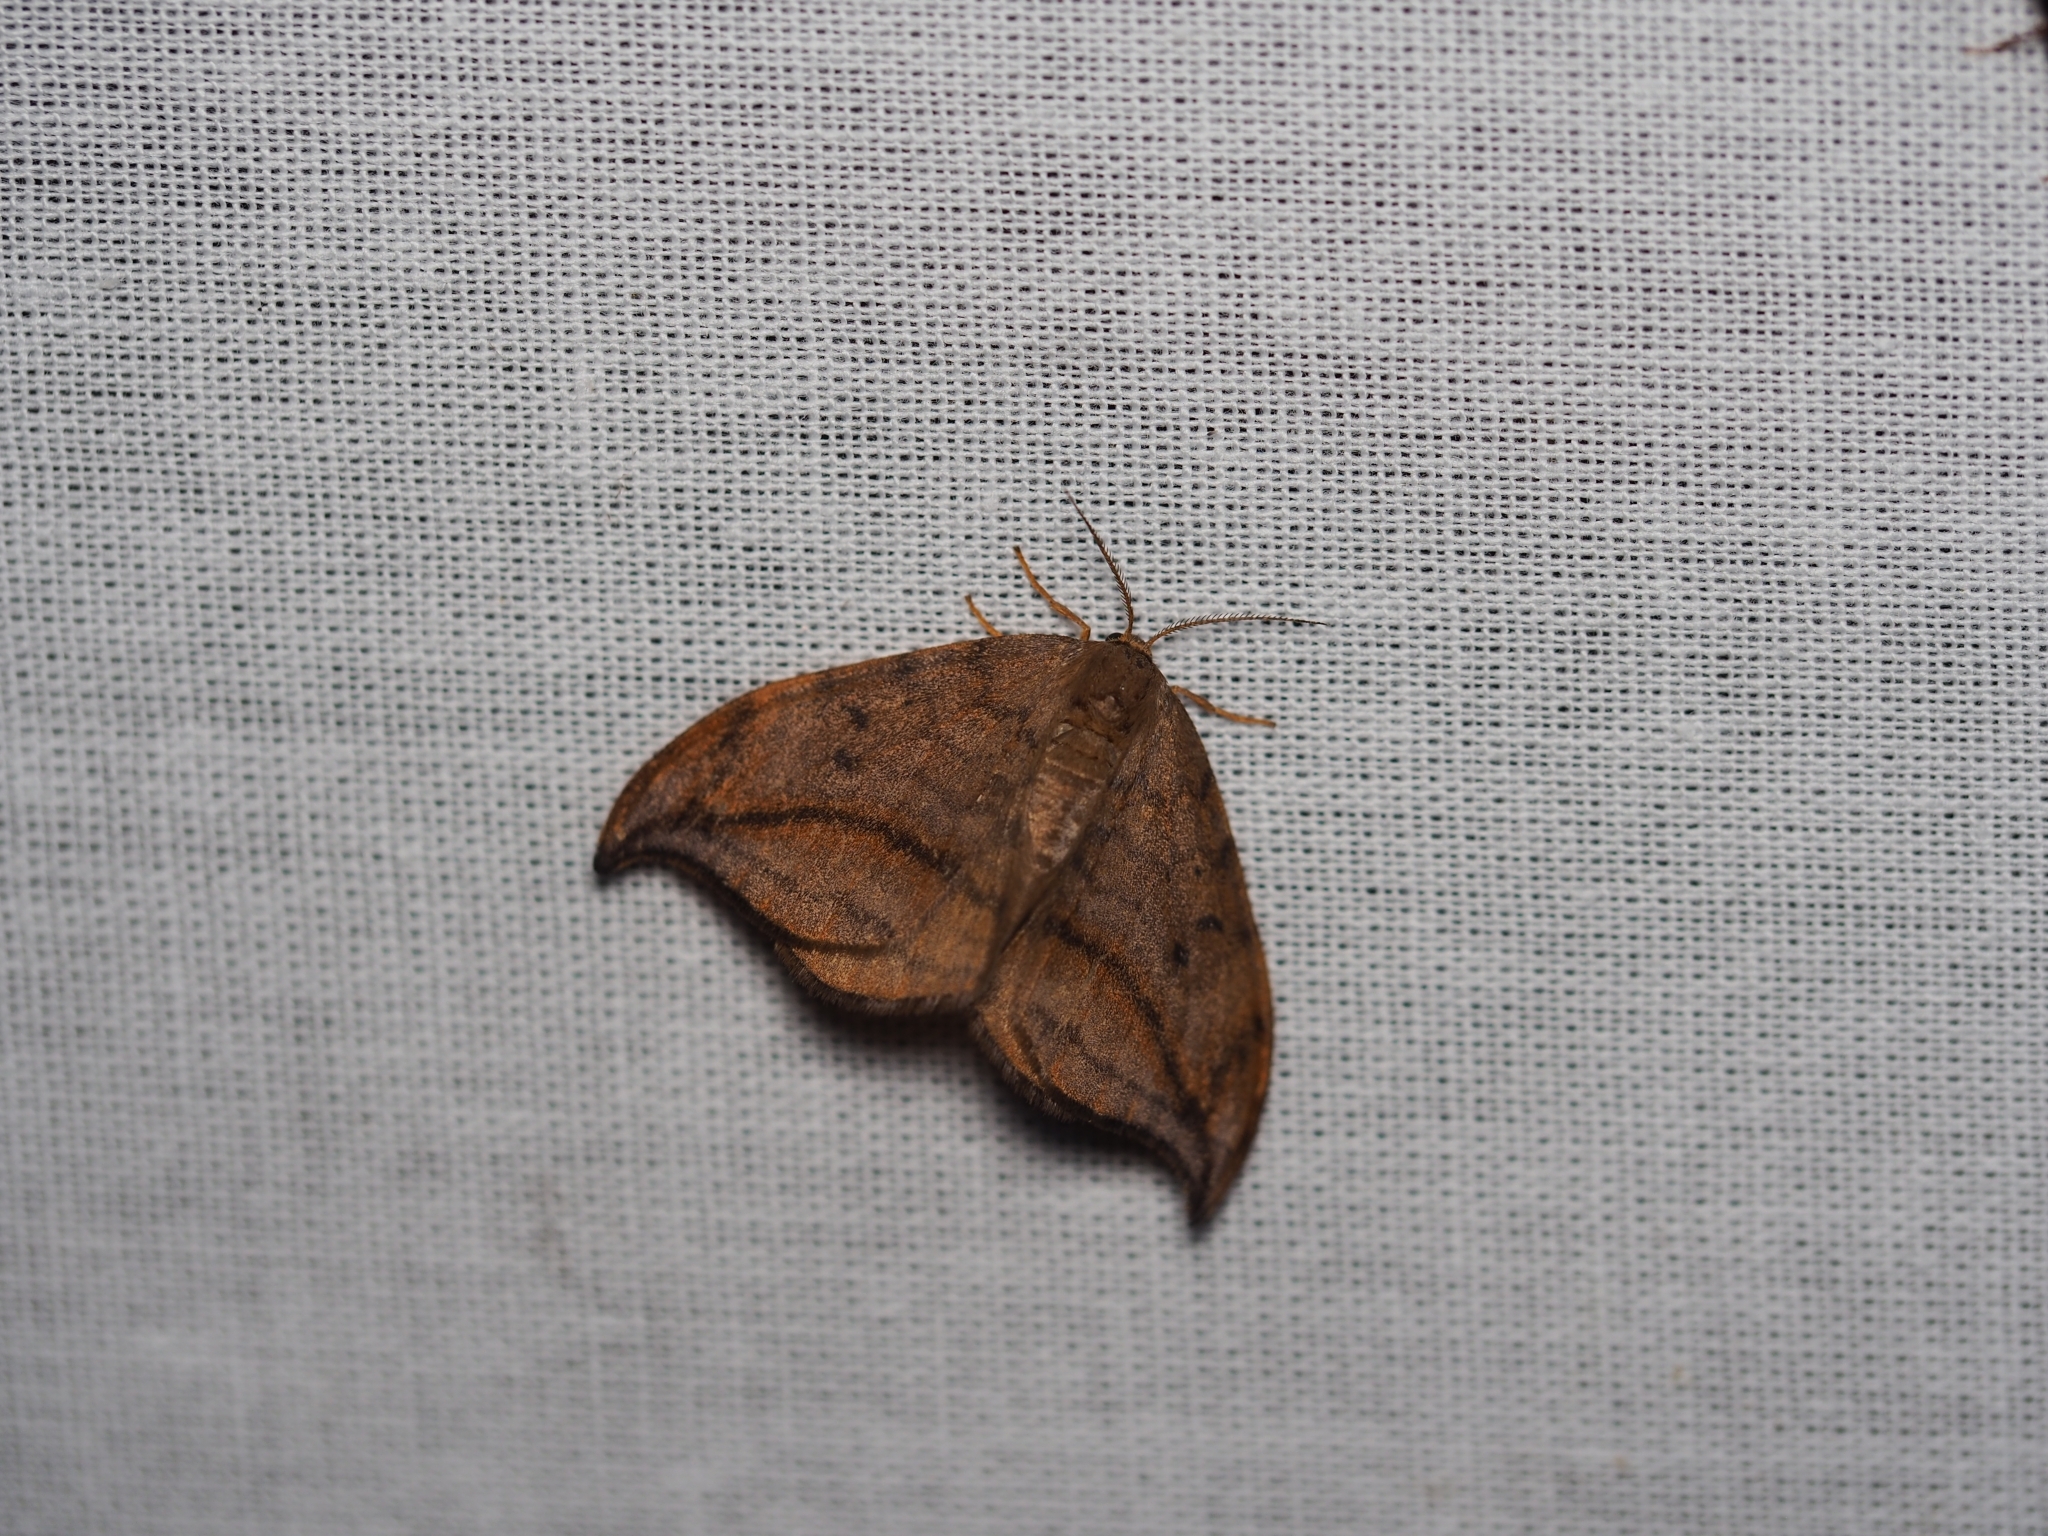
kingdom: Animalia
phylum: Arthropoda
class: Insecta
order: Lepidoptera
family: Drepanidae
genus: Drepana
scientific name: Drepana curvatula
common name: Dusky hook-tip
